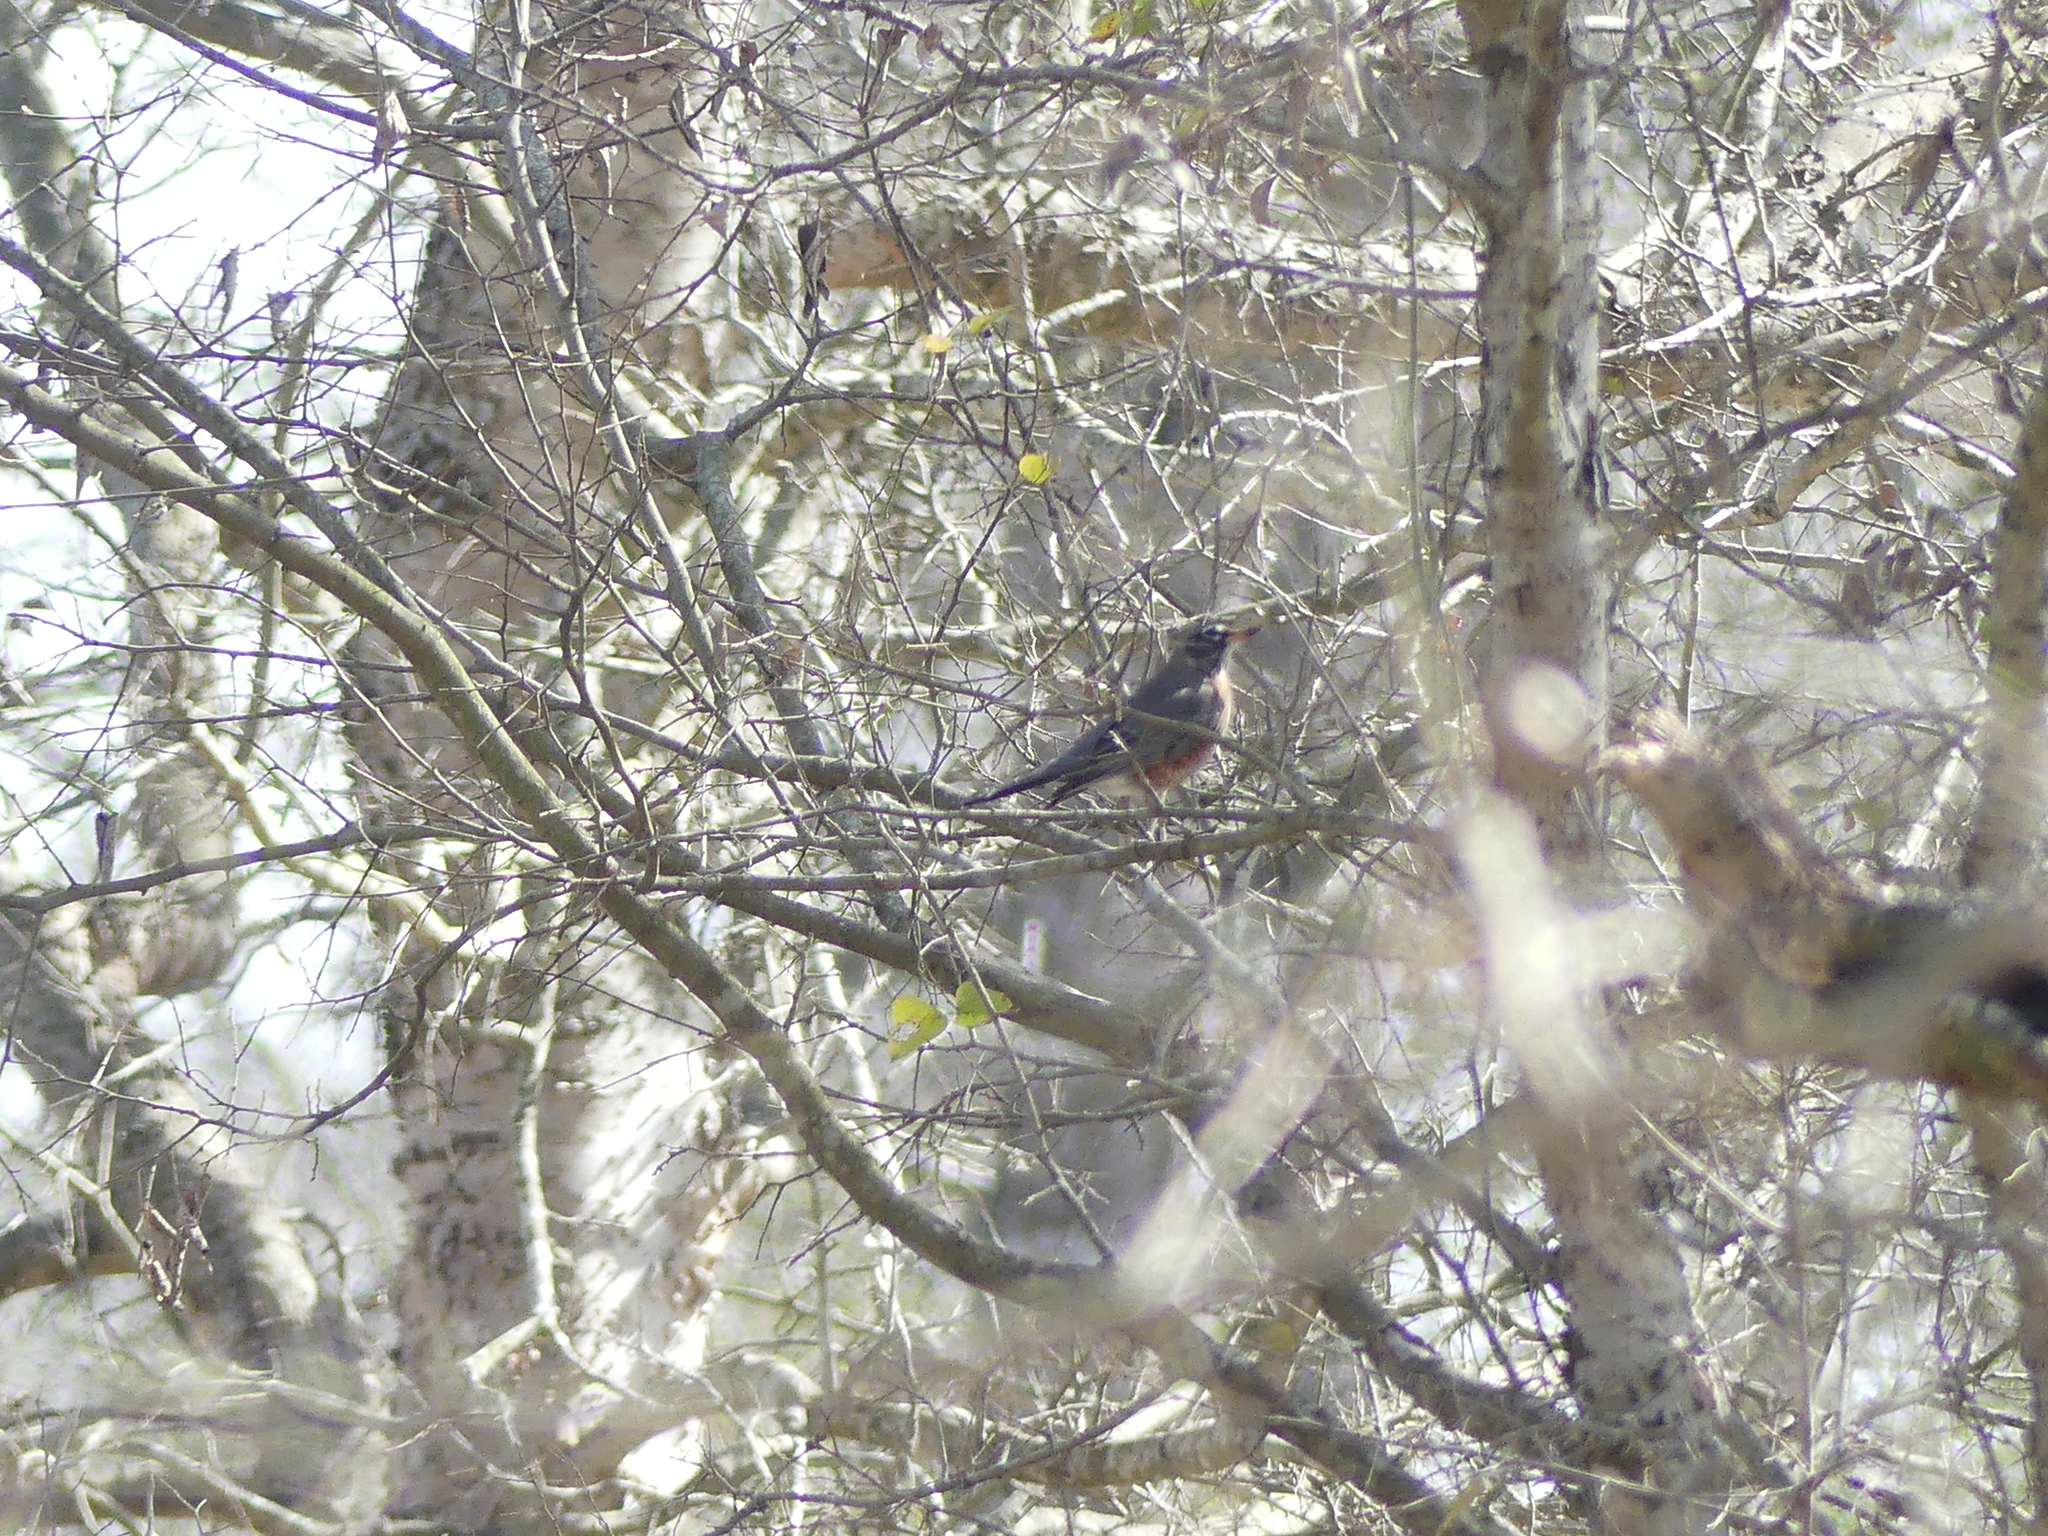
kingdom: Animalia
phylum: Chordata
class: Aves
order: Passeriformes
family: Turdidae
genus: Turdus
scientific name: Turdus migratorius
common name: American robin
